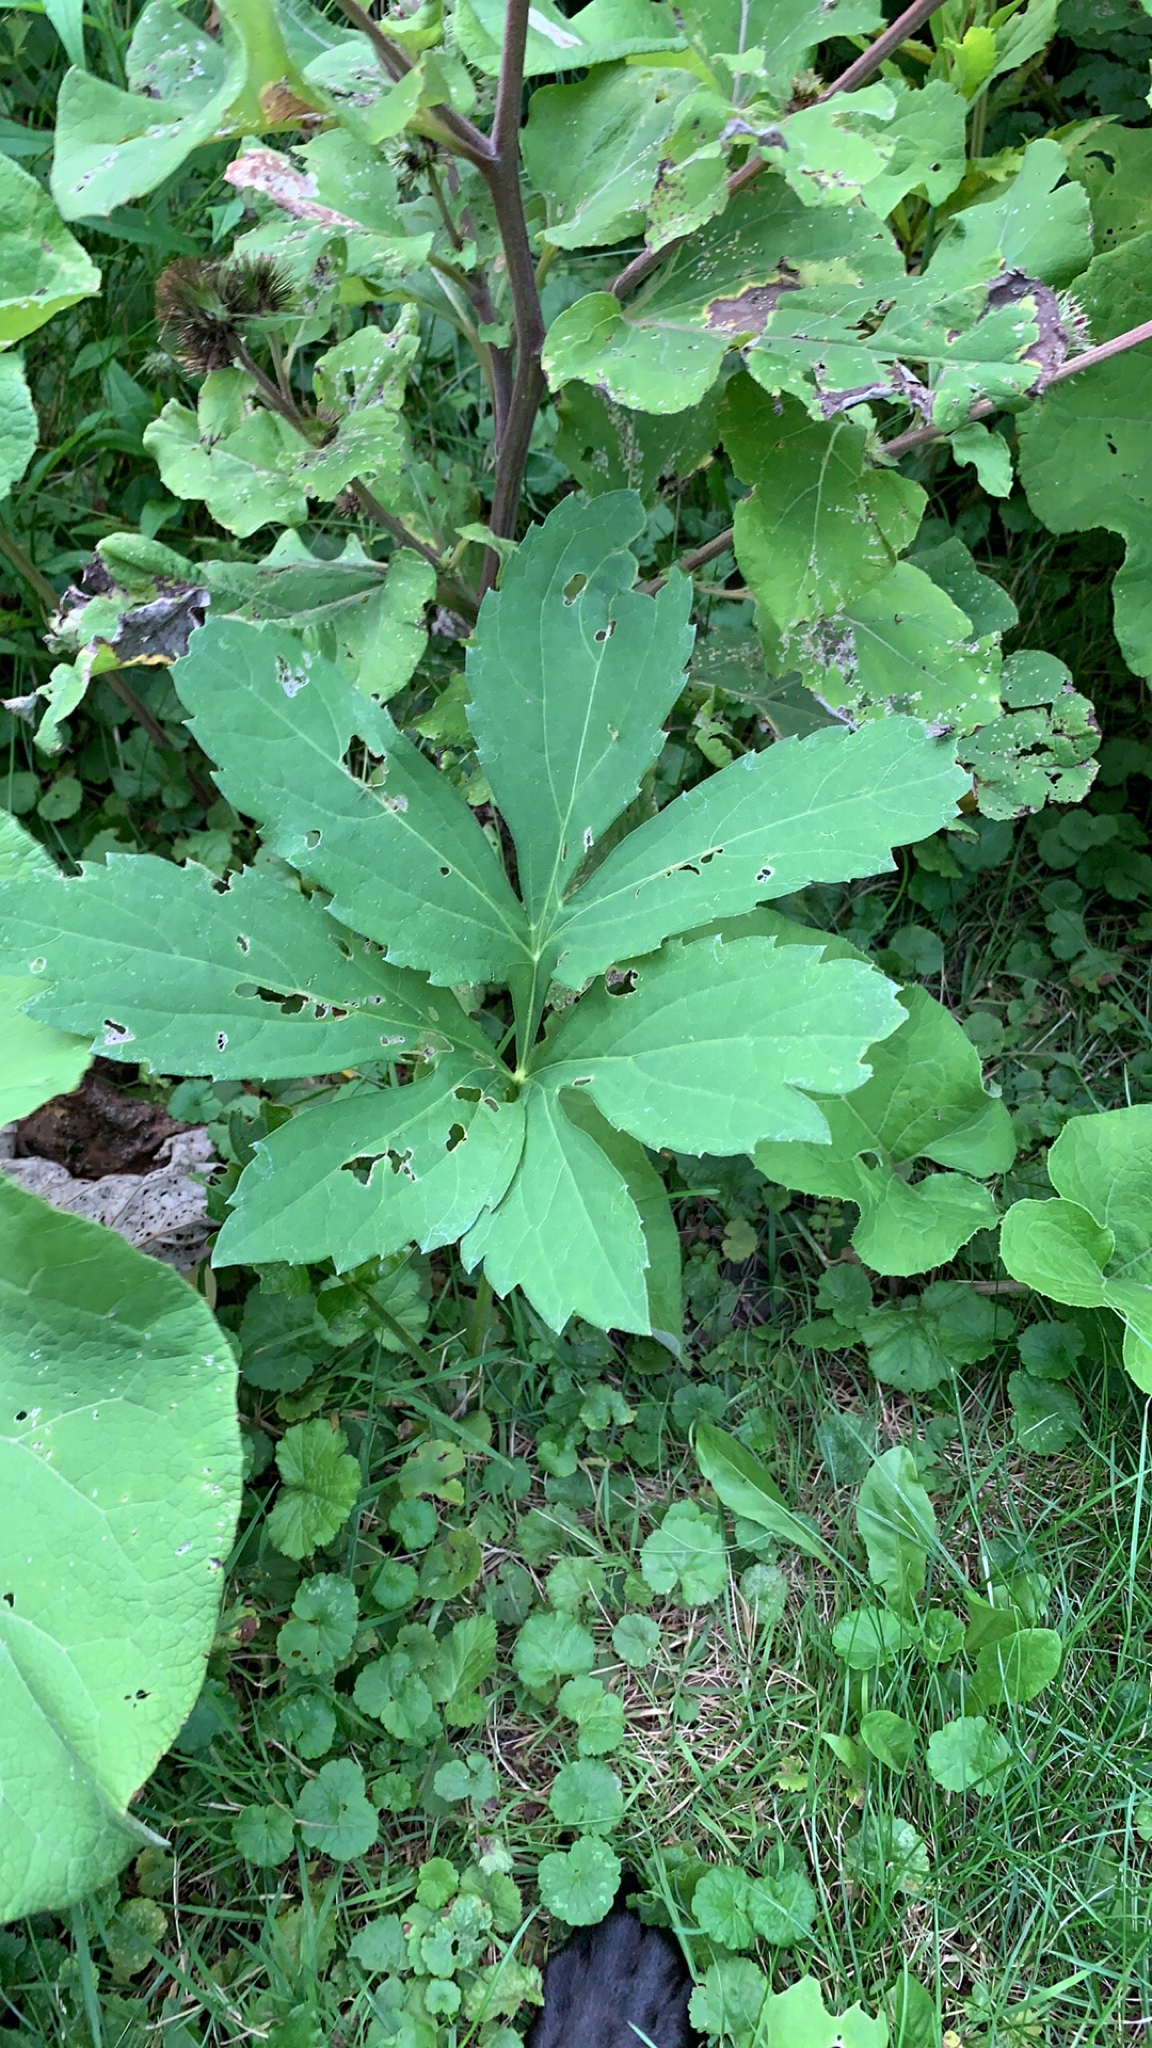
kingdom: Plantae
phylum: Tracheophyta
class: Magnoliopsida
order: Asterales
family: Asteraceae
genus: Rudbeckia
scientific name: Rudbeckia laciniata
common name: Coneflower
